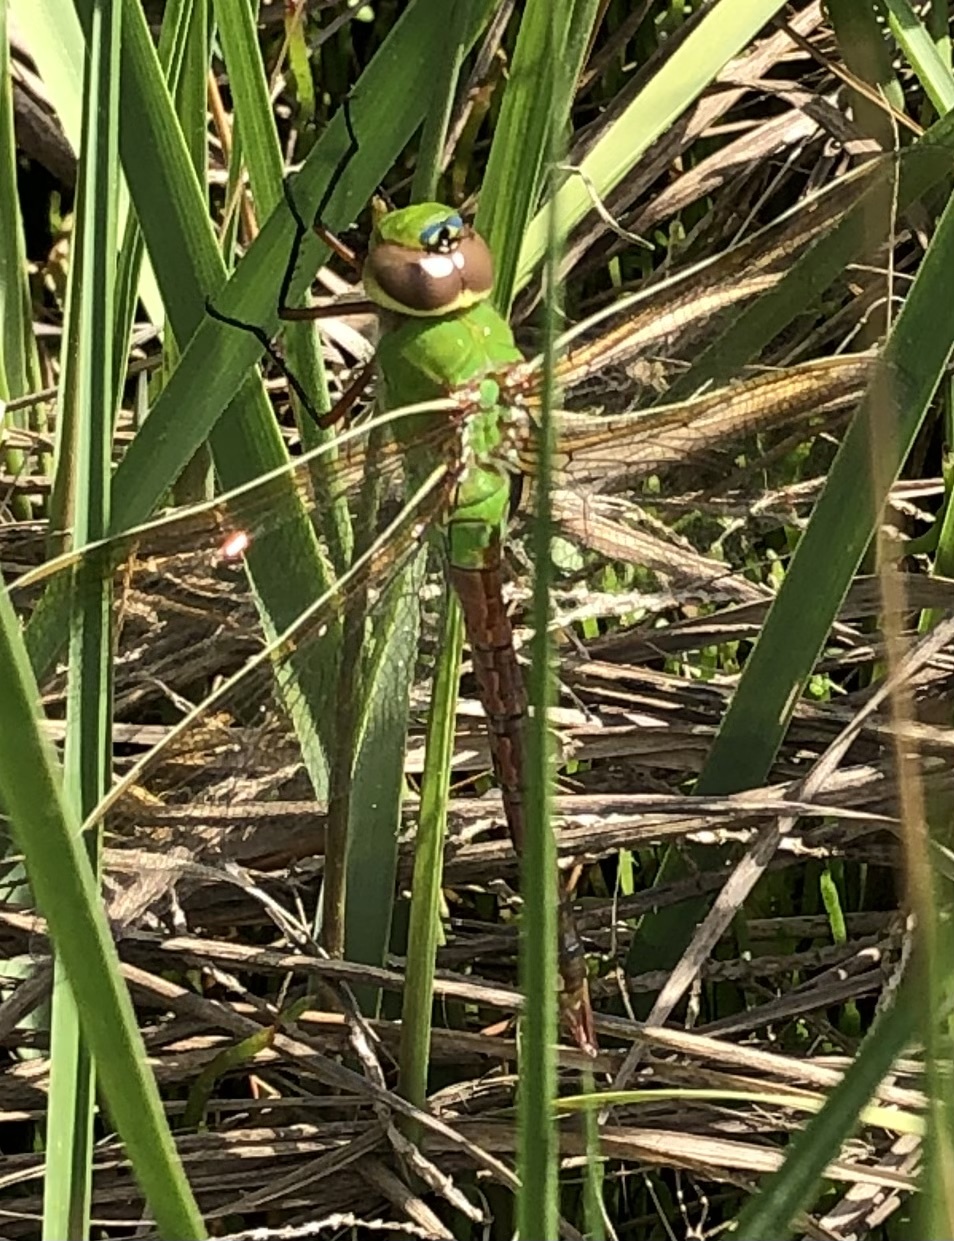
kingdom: Animalia
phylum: Arthropoda
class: Insecta
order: Odonata
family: Aeshnidae
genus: Anax
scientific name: Anax junius
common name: Common green darner
